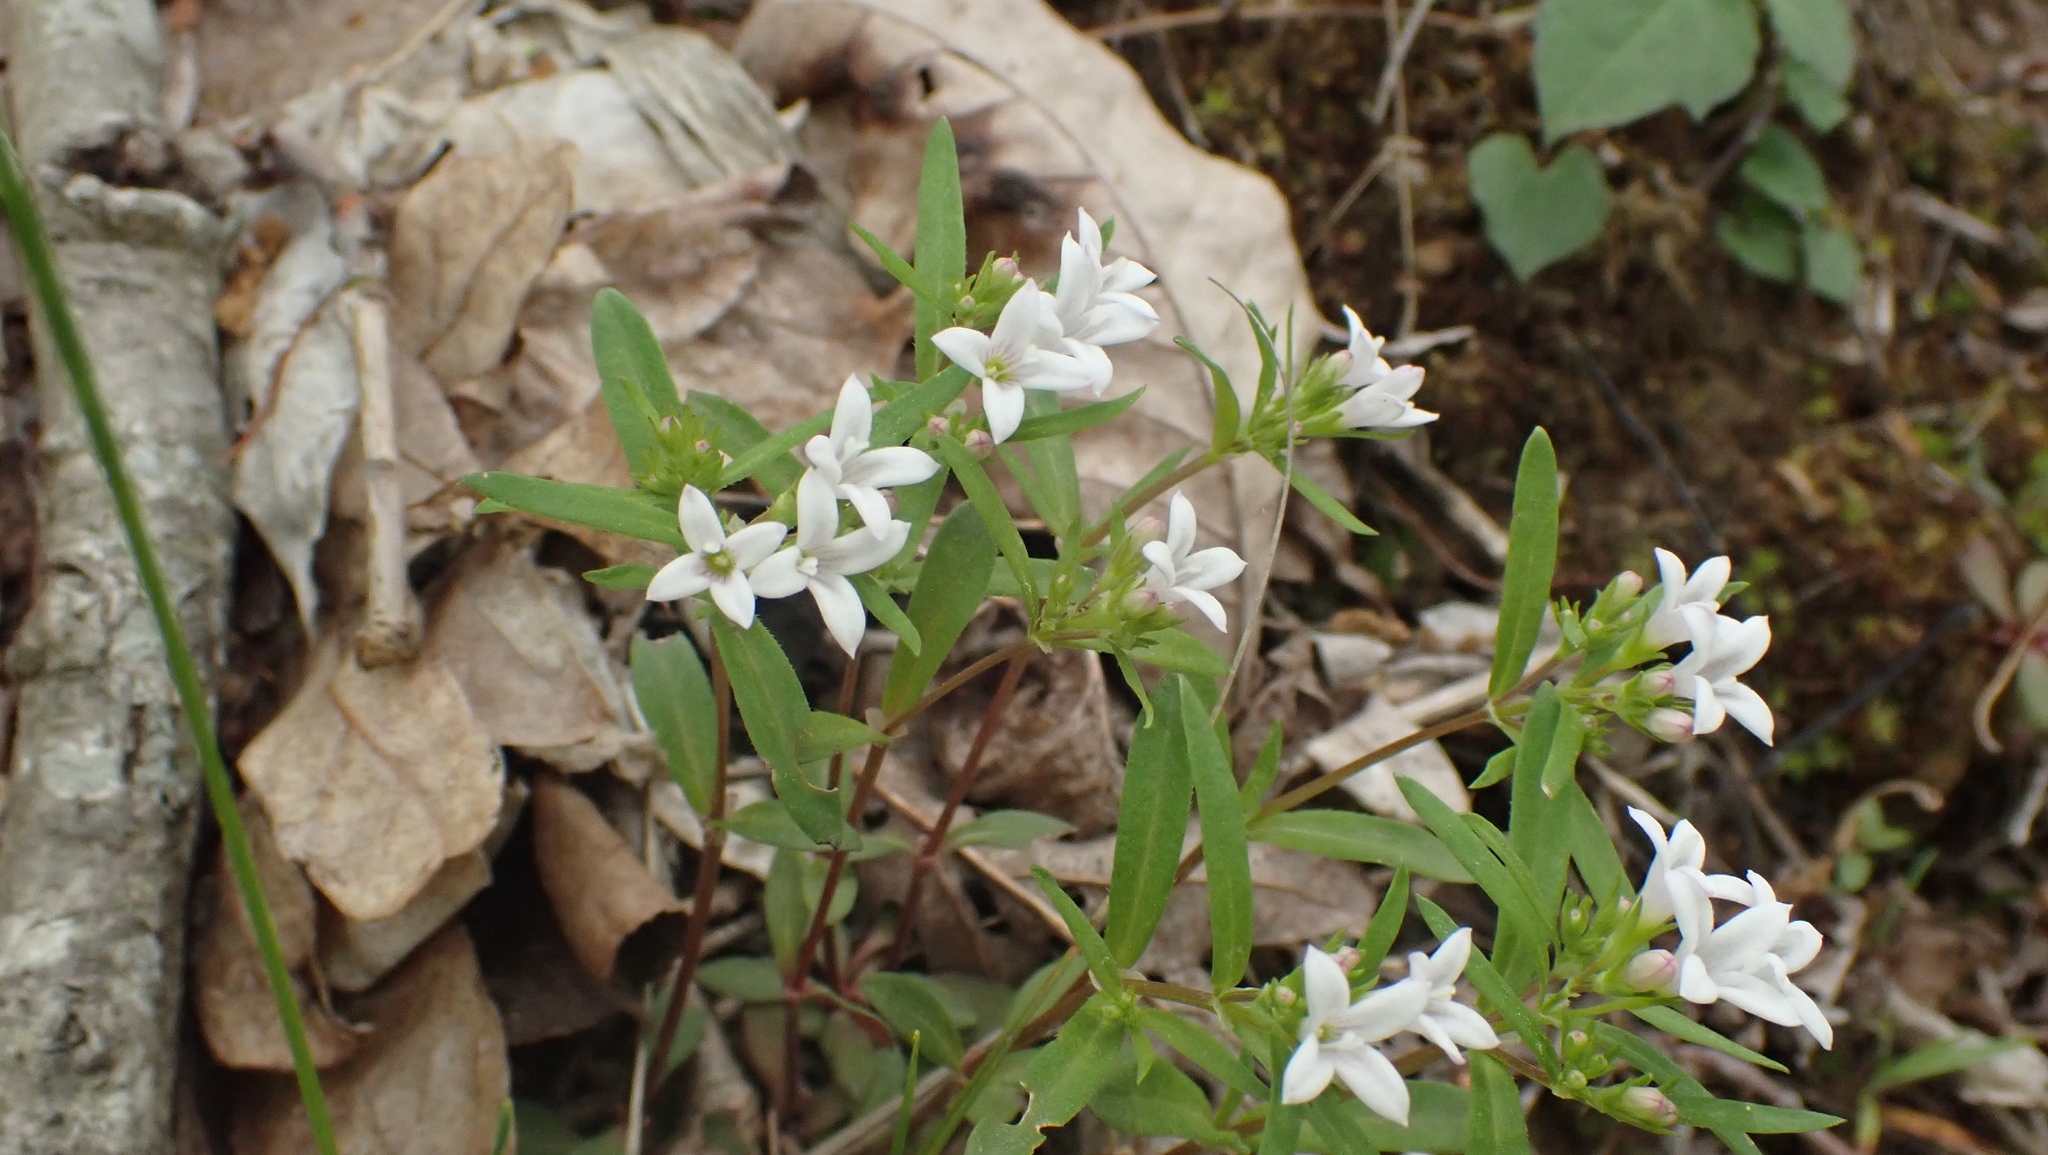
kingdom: Plantae
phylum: Tracheophyta
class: Magnoliopsida
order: Gentianales
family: Rubiaceae
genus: Houstonia
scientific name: Houstonia longifolia
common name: Long-leaved bluets
